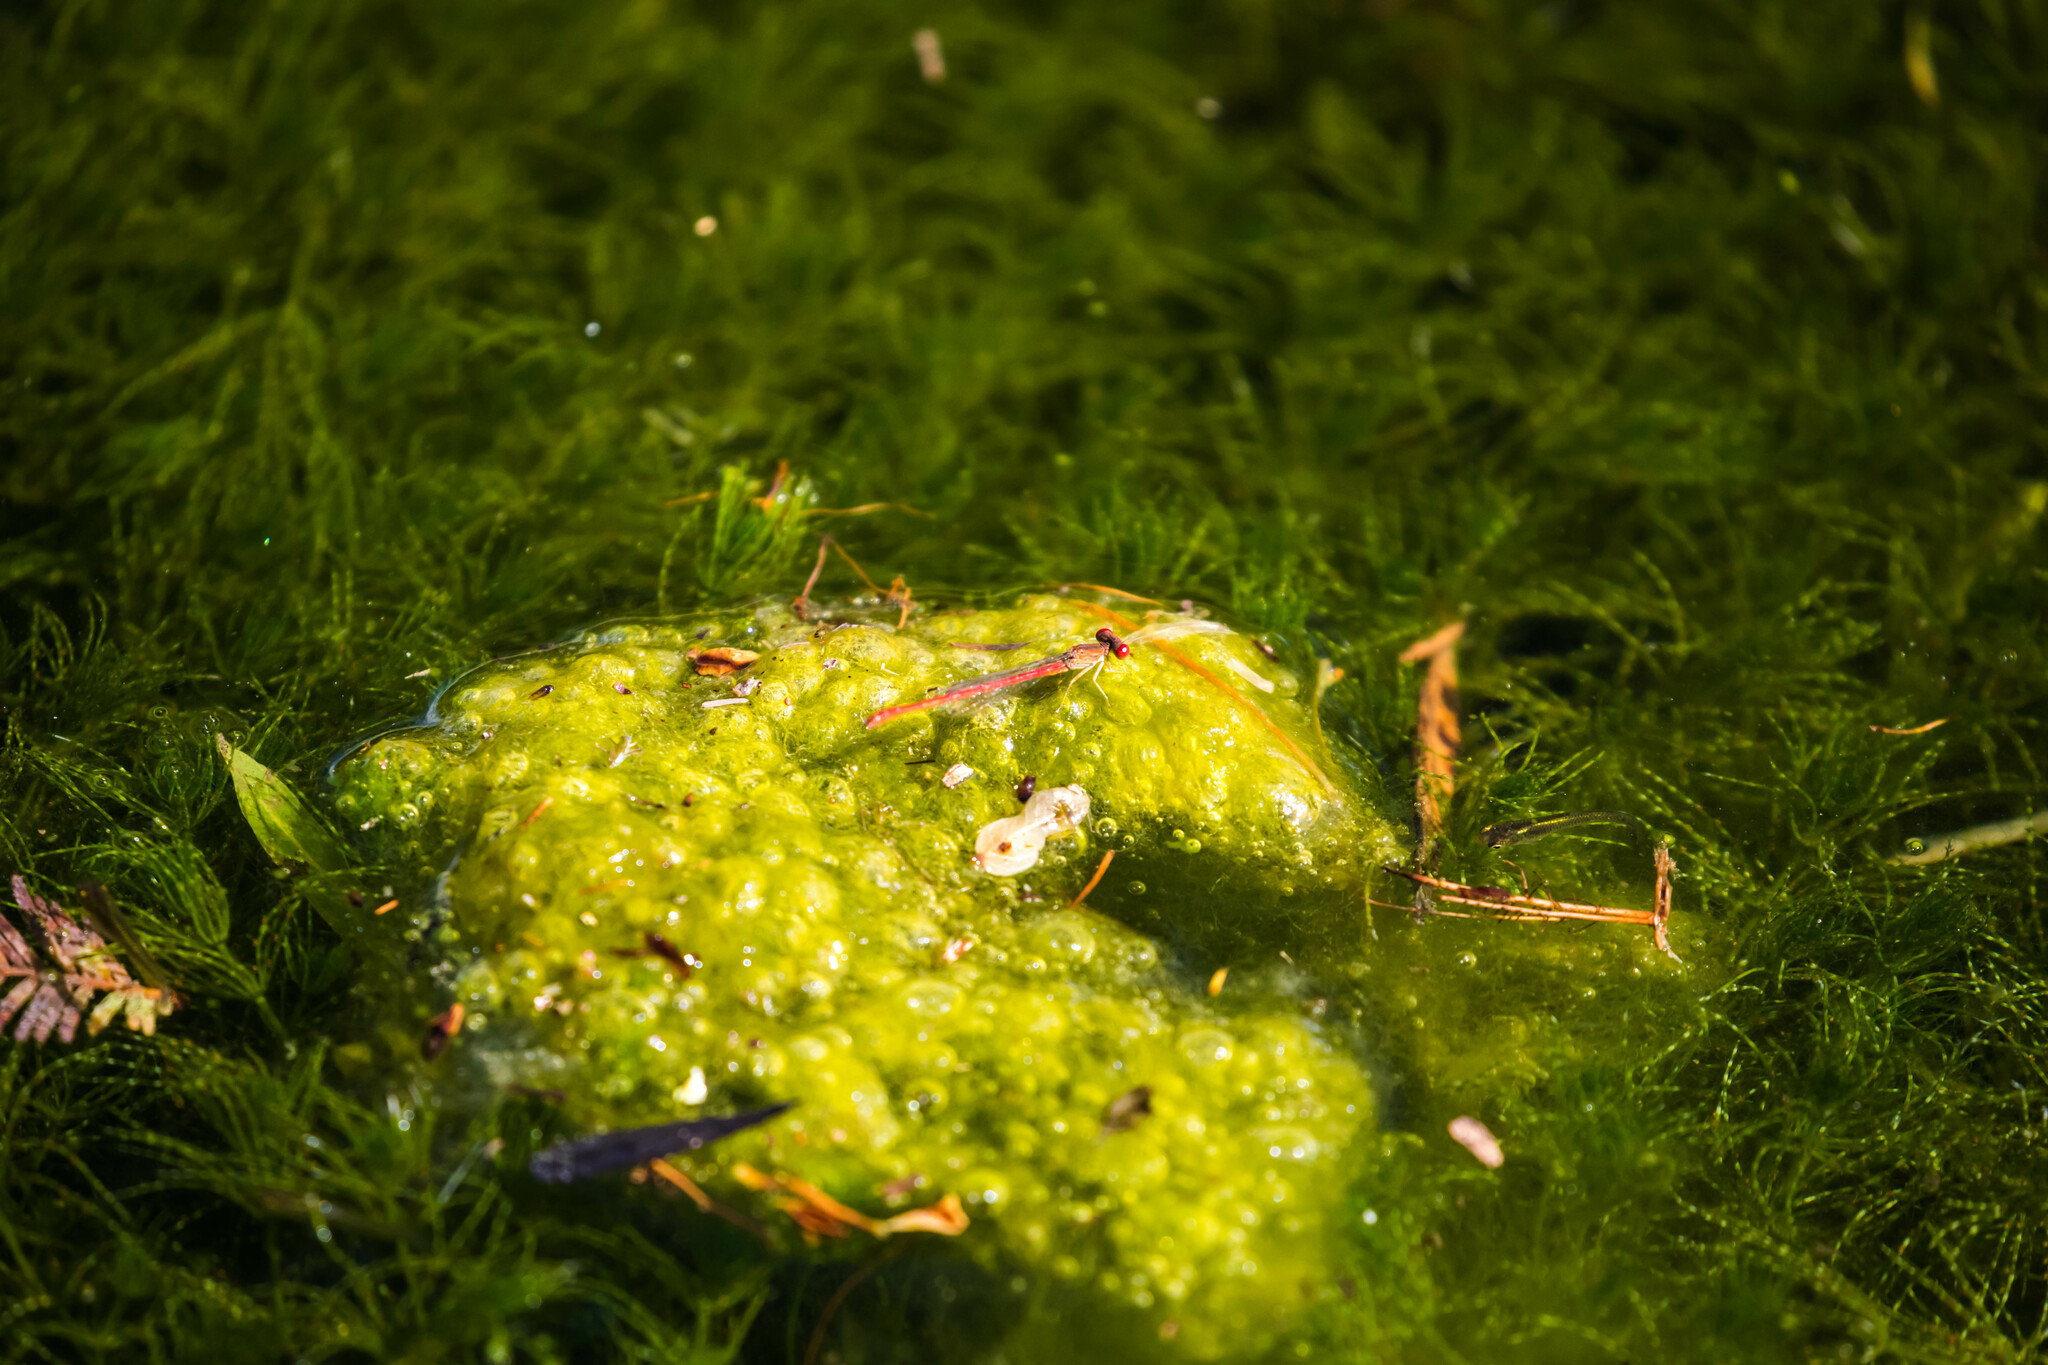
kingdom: Animalia
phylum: Arthropoda
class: Insecta
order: Odonata
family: Coenagrionidae
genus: Telebasis
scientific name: Telebasis salva
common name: Desert firetail
